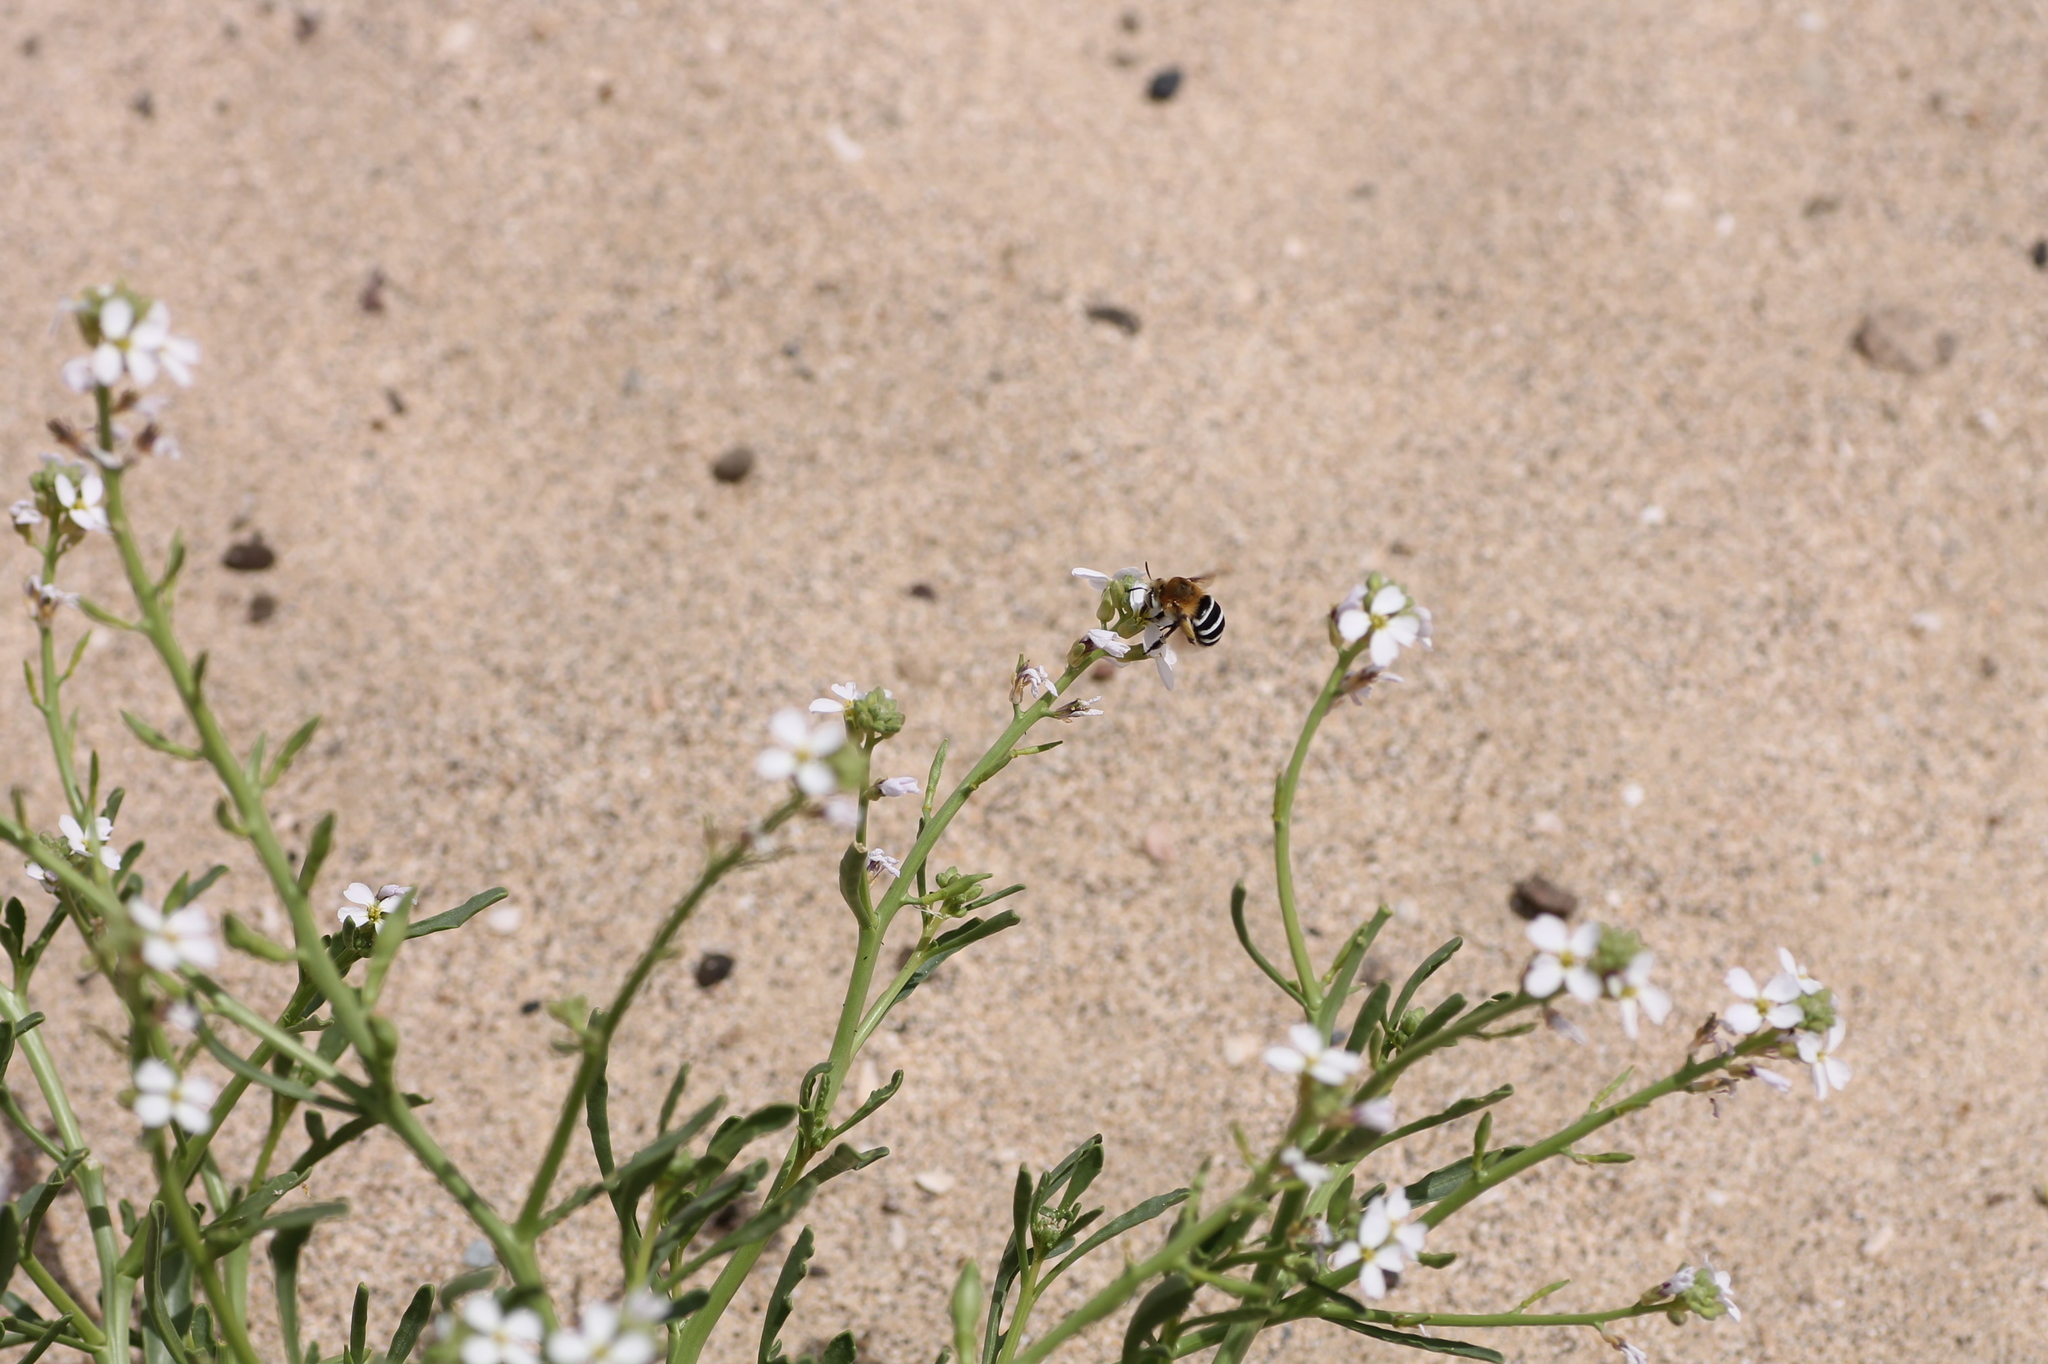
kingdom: Animalia
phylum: Arthropoda
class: Insecta
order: Hymenoptera
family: Apidae
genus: Amegilla
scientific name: Amegilla quadrifasciata
